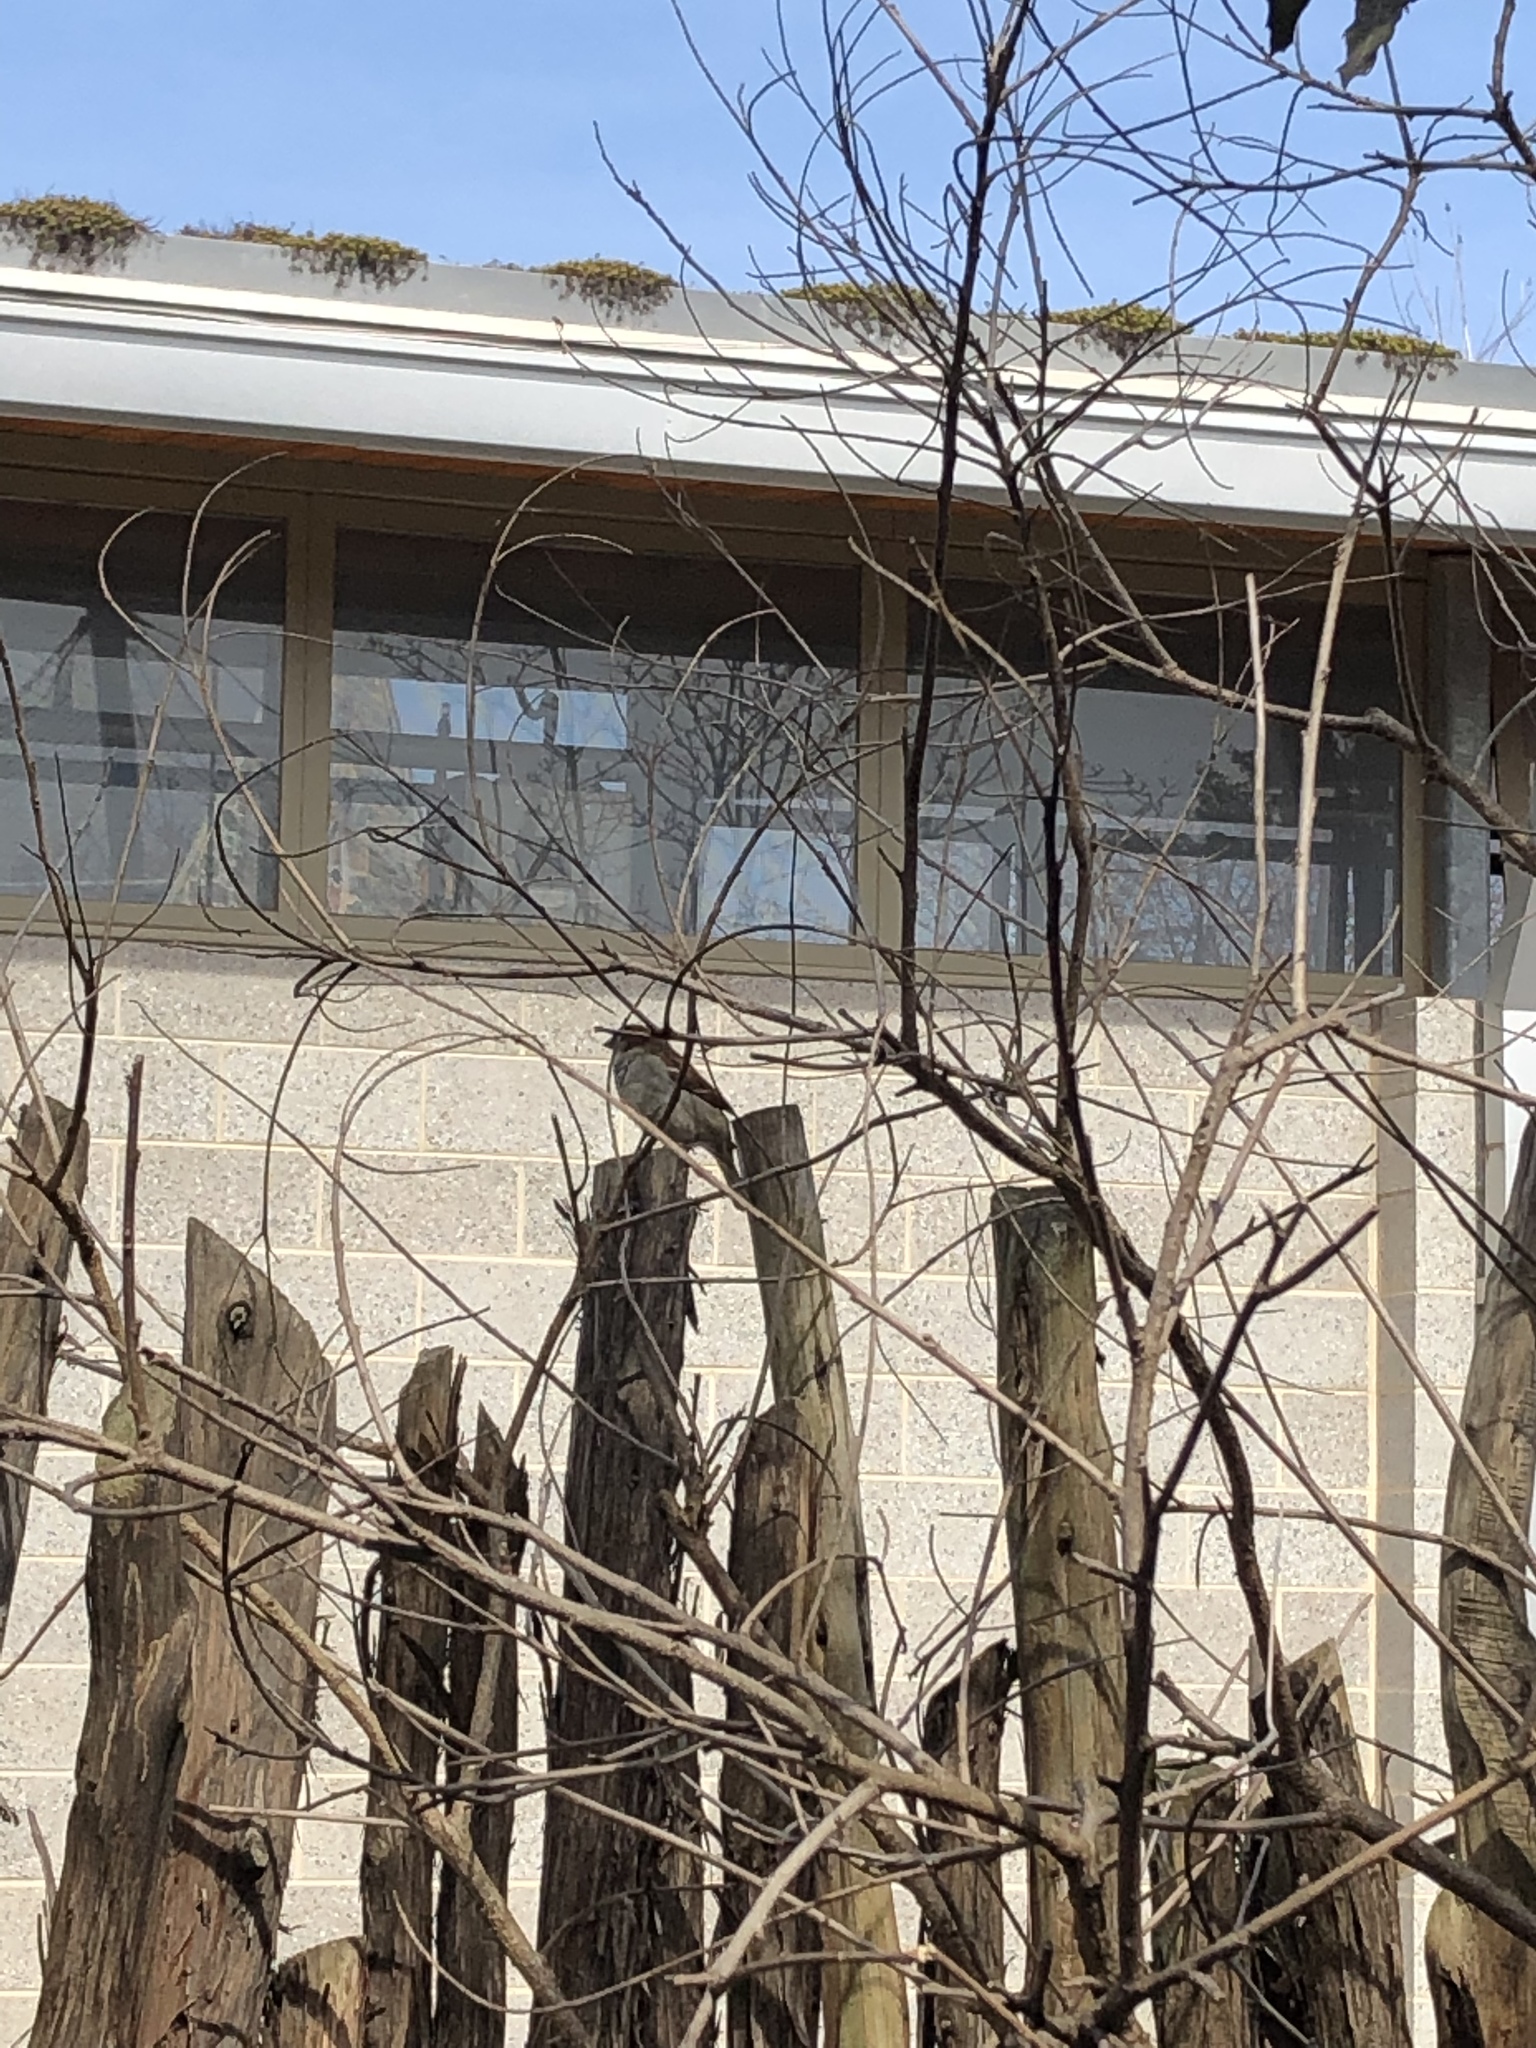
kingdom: Animalia
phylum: Chordata
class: Aves
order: Passeriformes
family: Passeridae
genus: Passer
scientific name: Passer domesticus
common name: House sparrow
